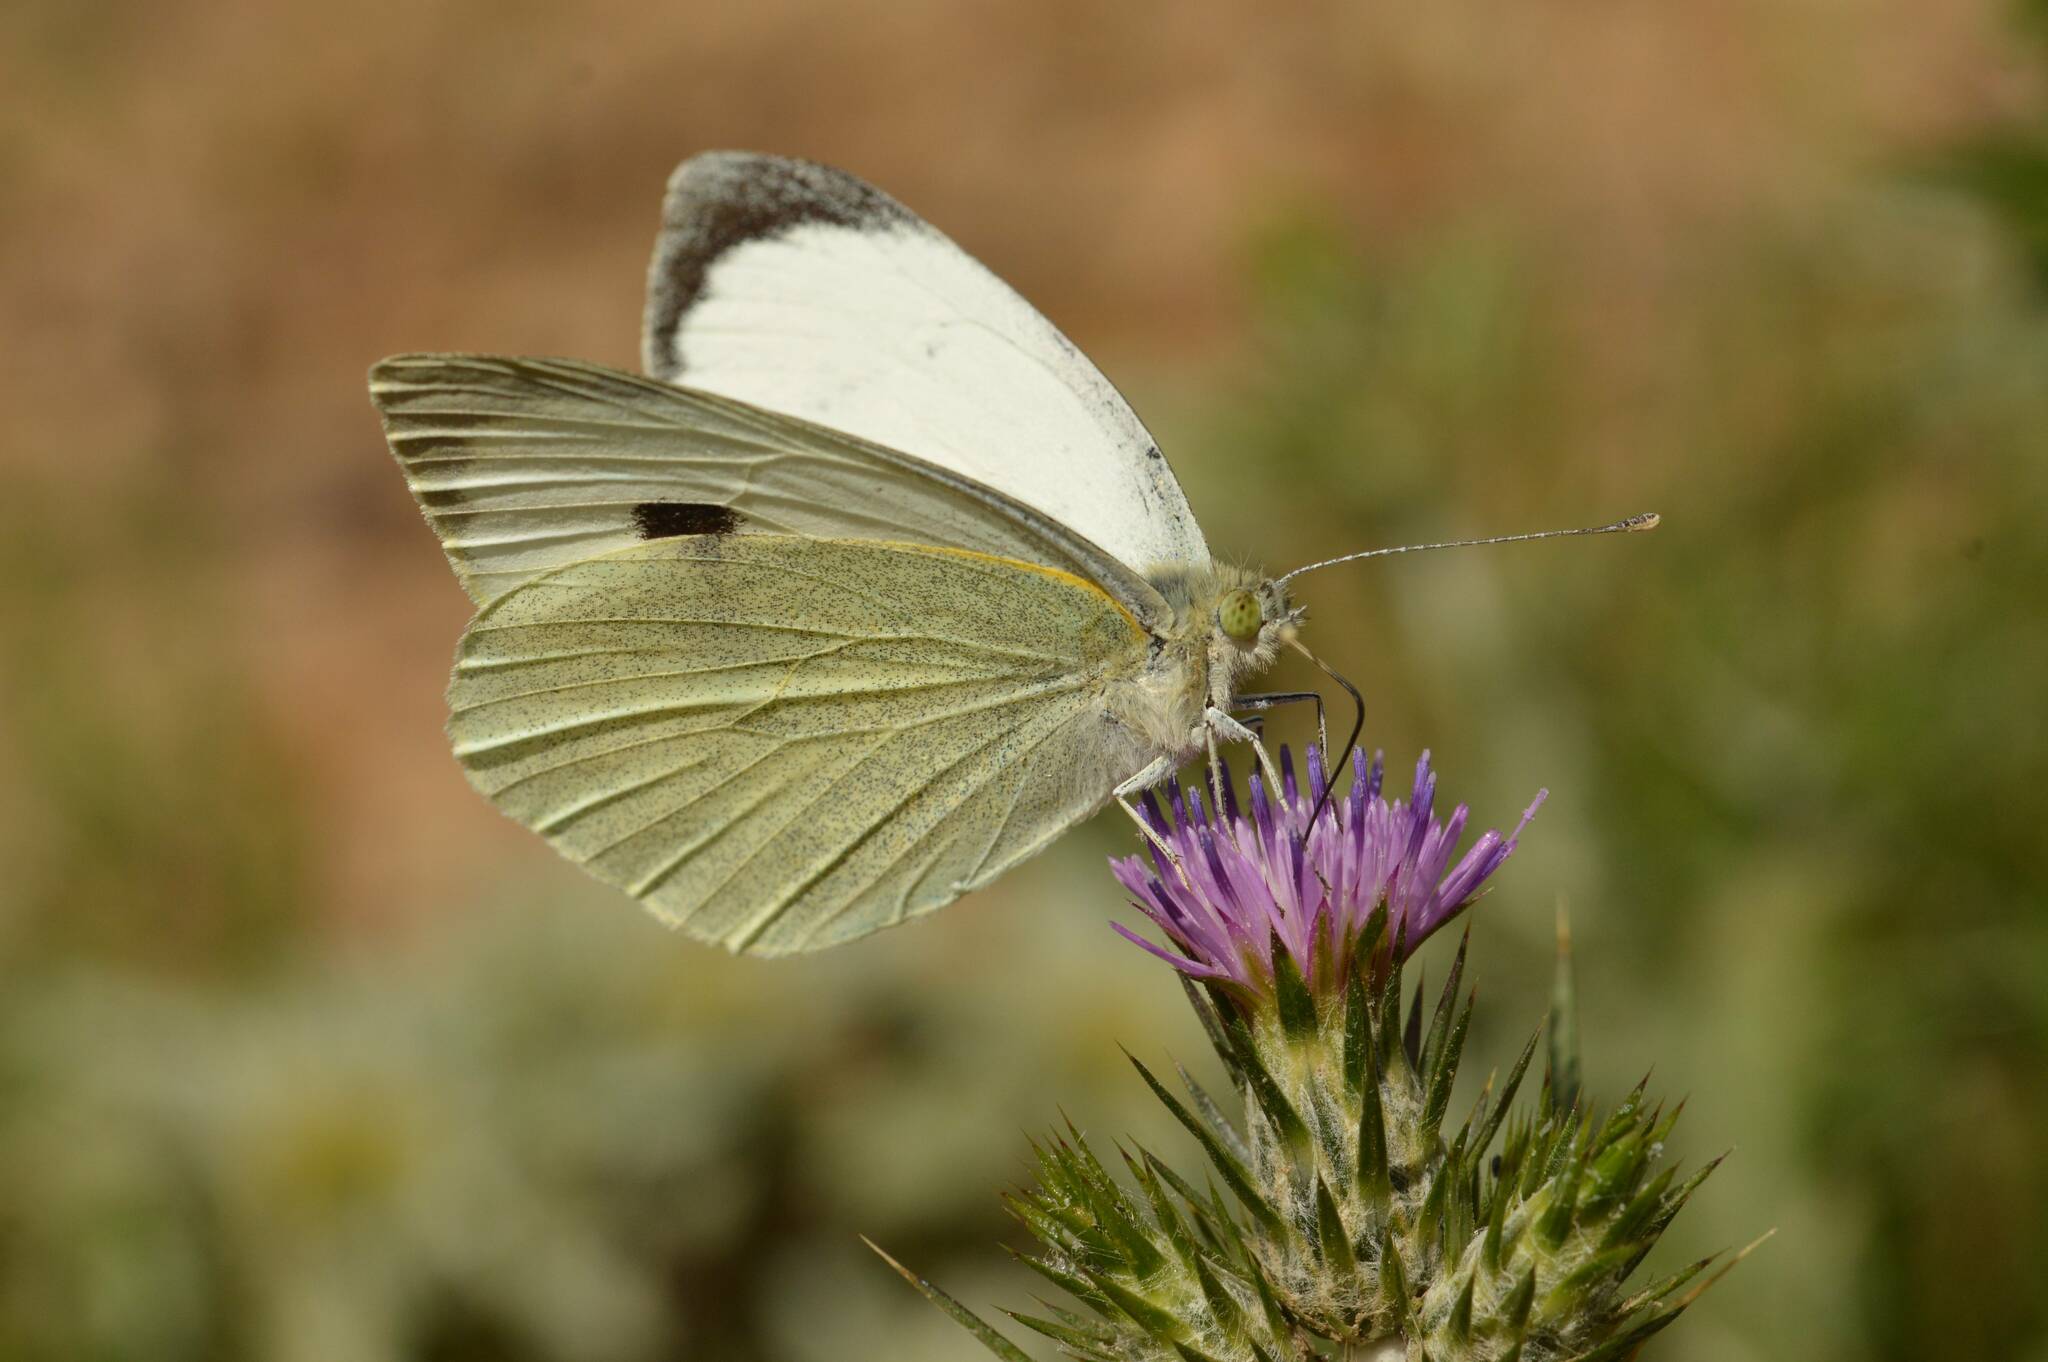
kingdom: Animalia
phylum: Arthropoda
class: Insecta
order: Lepidoptera
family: Pieridae
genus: Pieris
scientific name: Pieris brassicae
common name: Large white
